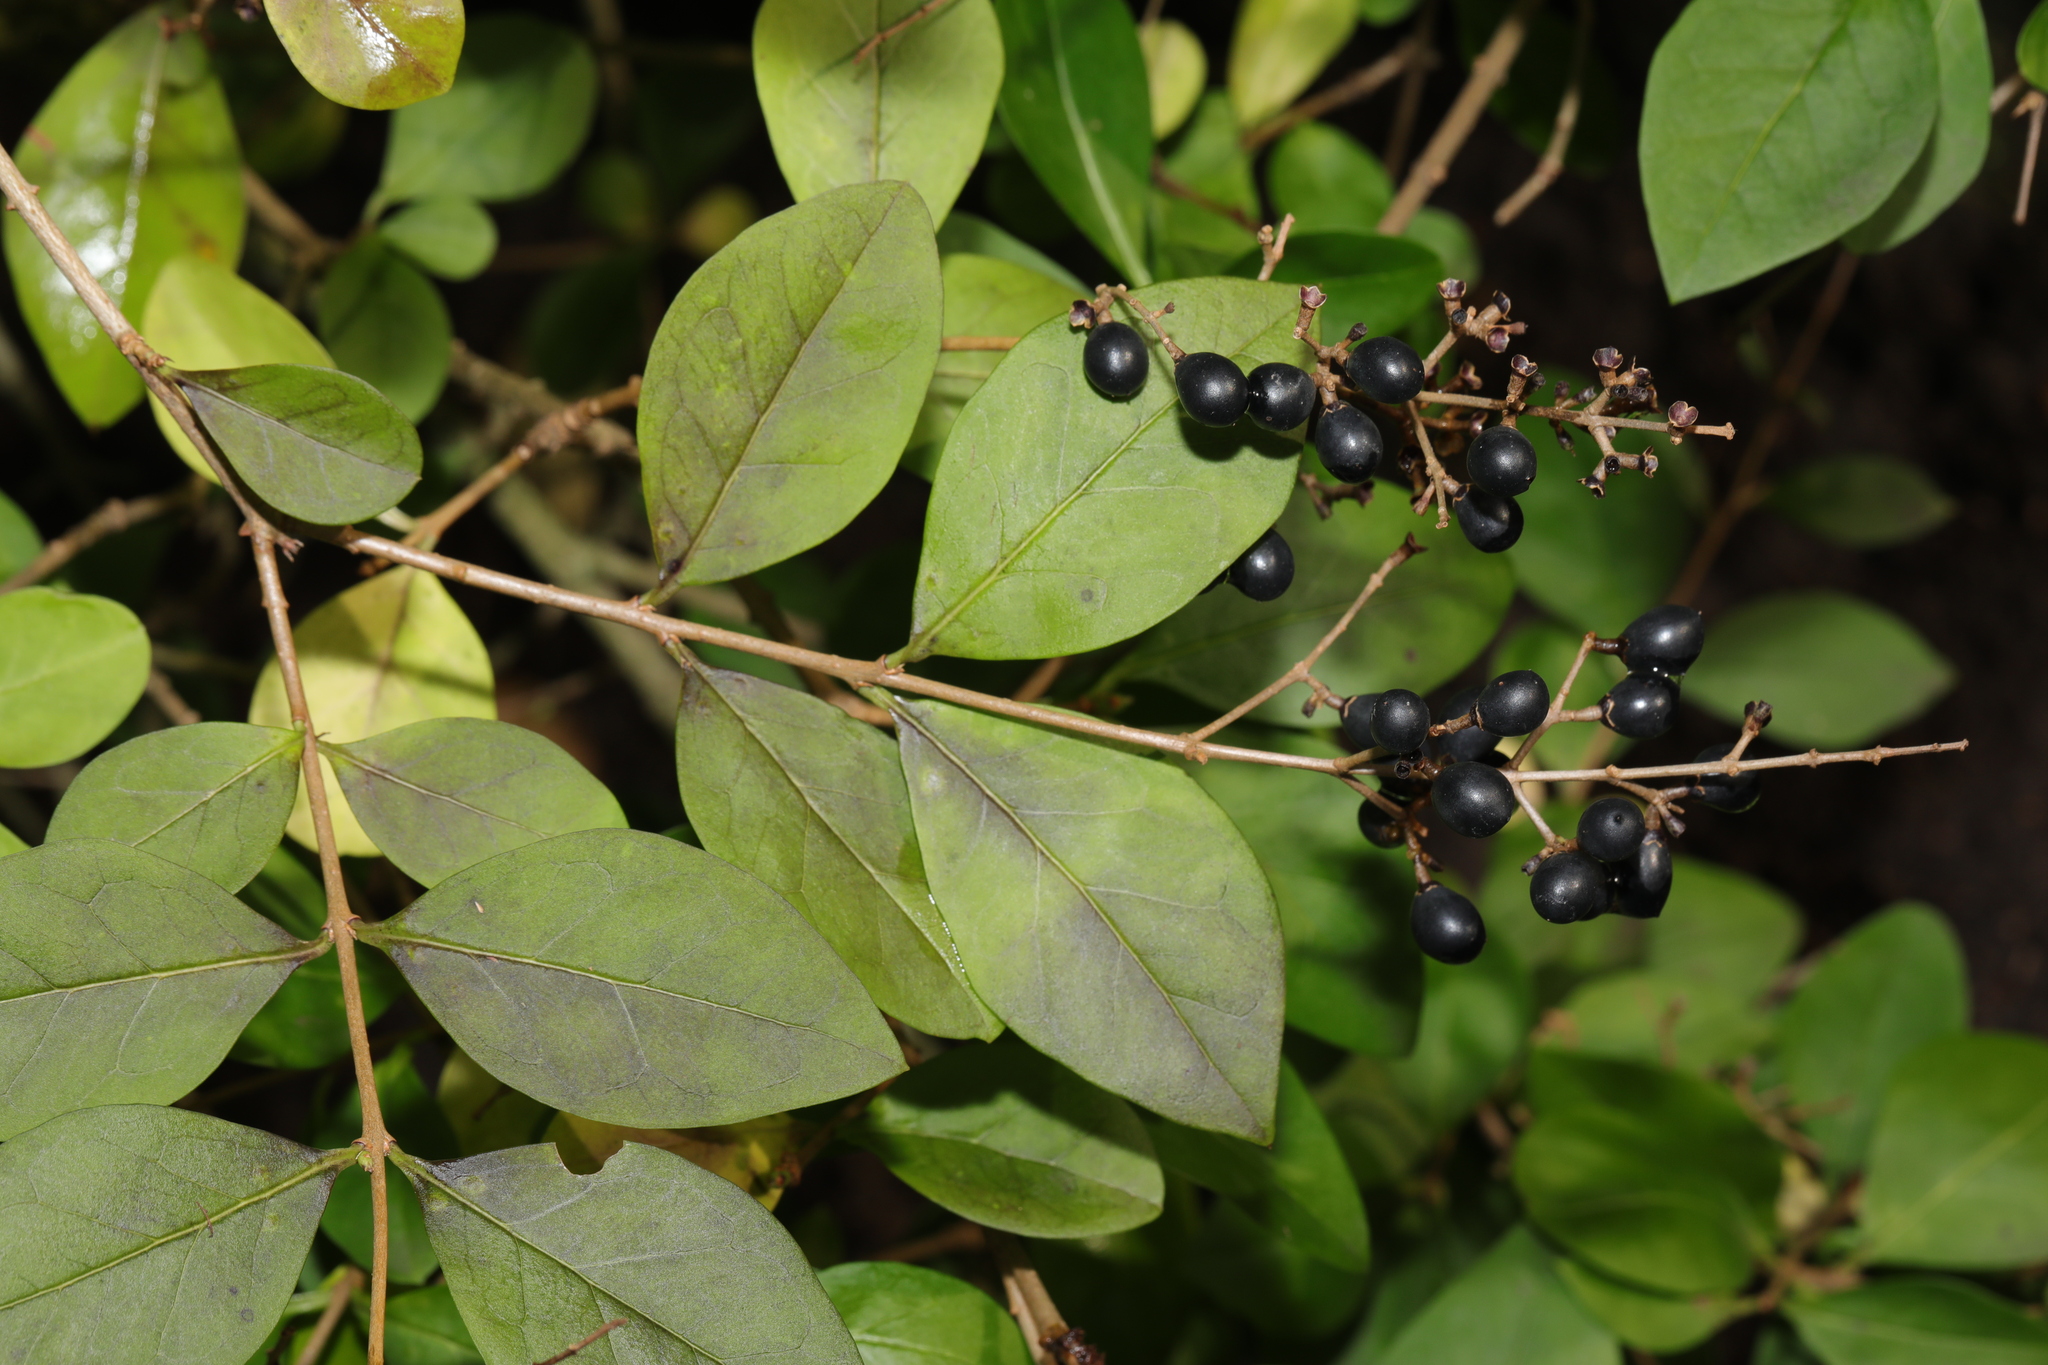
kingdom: Plantae
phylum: Tracheophyta
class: Magnoliopsida
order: Lamiales
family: Oleaceae
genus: Ligustrum
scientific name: Ligustrum ovalifolium
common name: California privet
